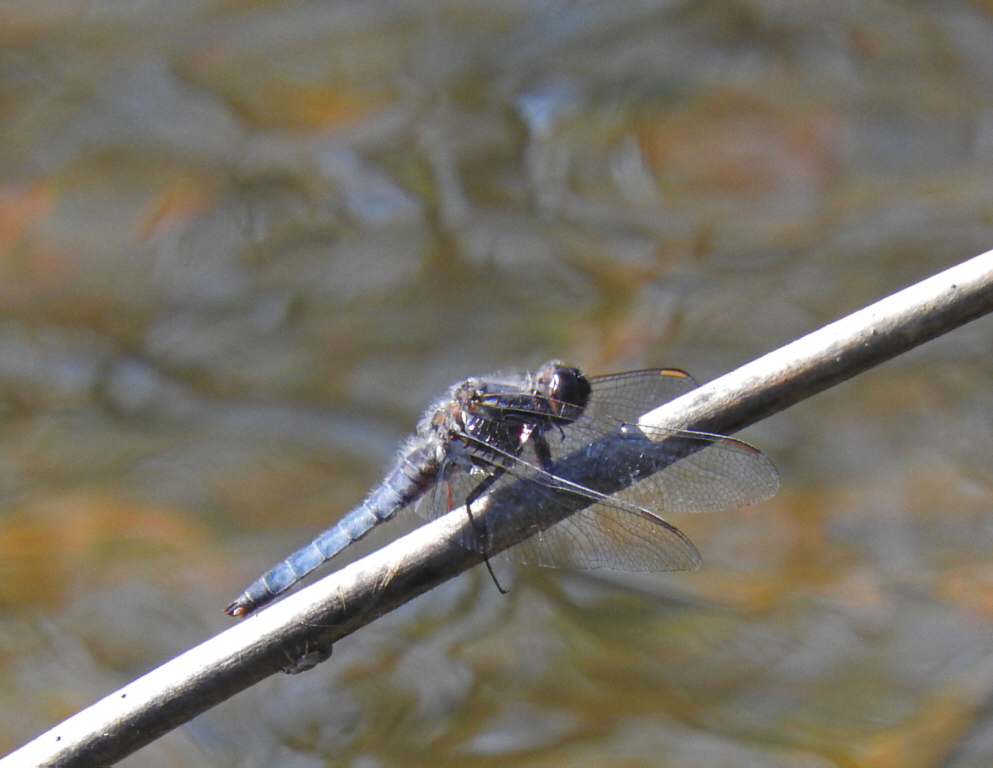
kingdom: Animalia
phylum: Arthropoda
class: Insecta
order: Odonata
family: Libellulidae
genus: Ladona
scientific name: Ladona deplanata
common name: Blue corporal
